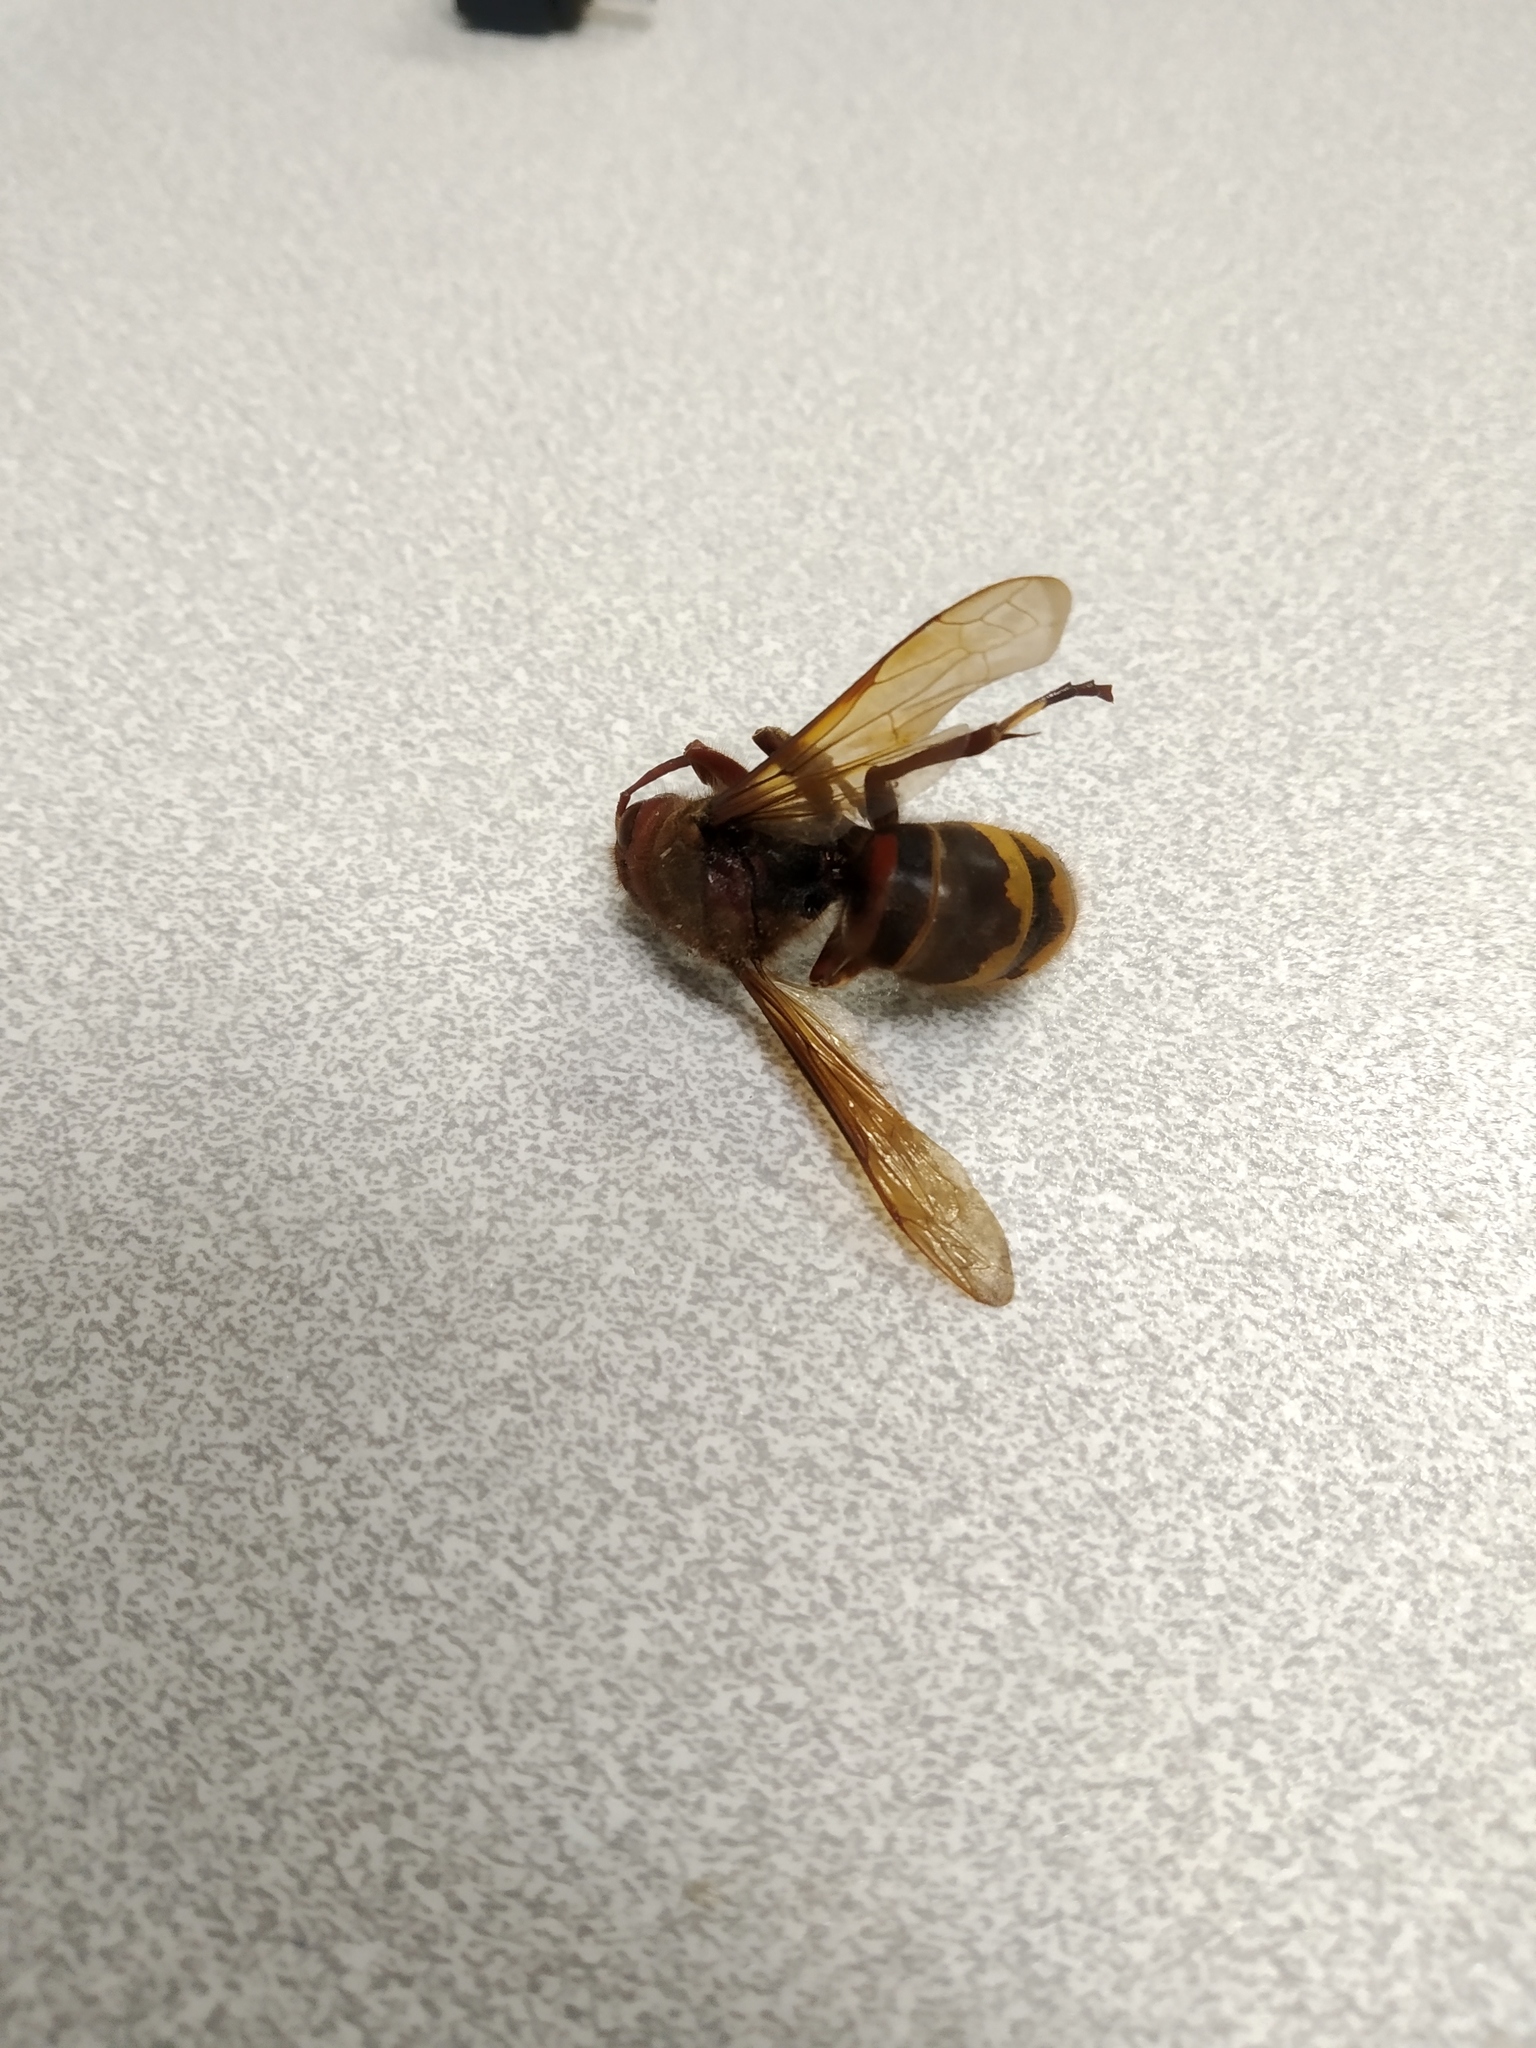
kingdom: Animalia
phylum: Arthropoda
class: Insecta
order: Hymenoptera
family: Vespidae
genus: Vespa
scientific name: Vespa crabro
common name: Hornet
